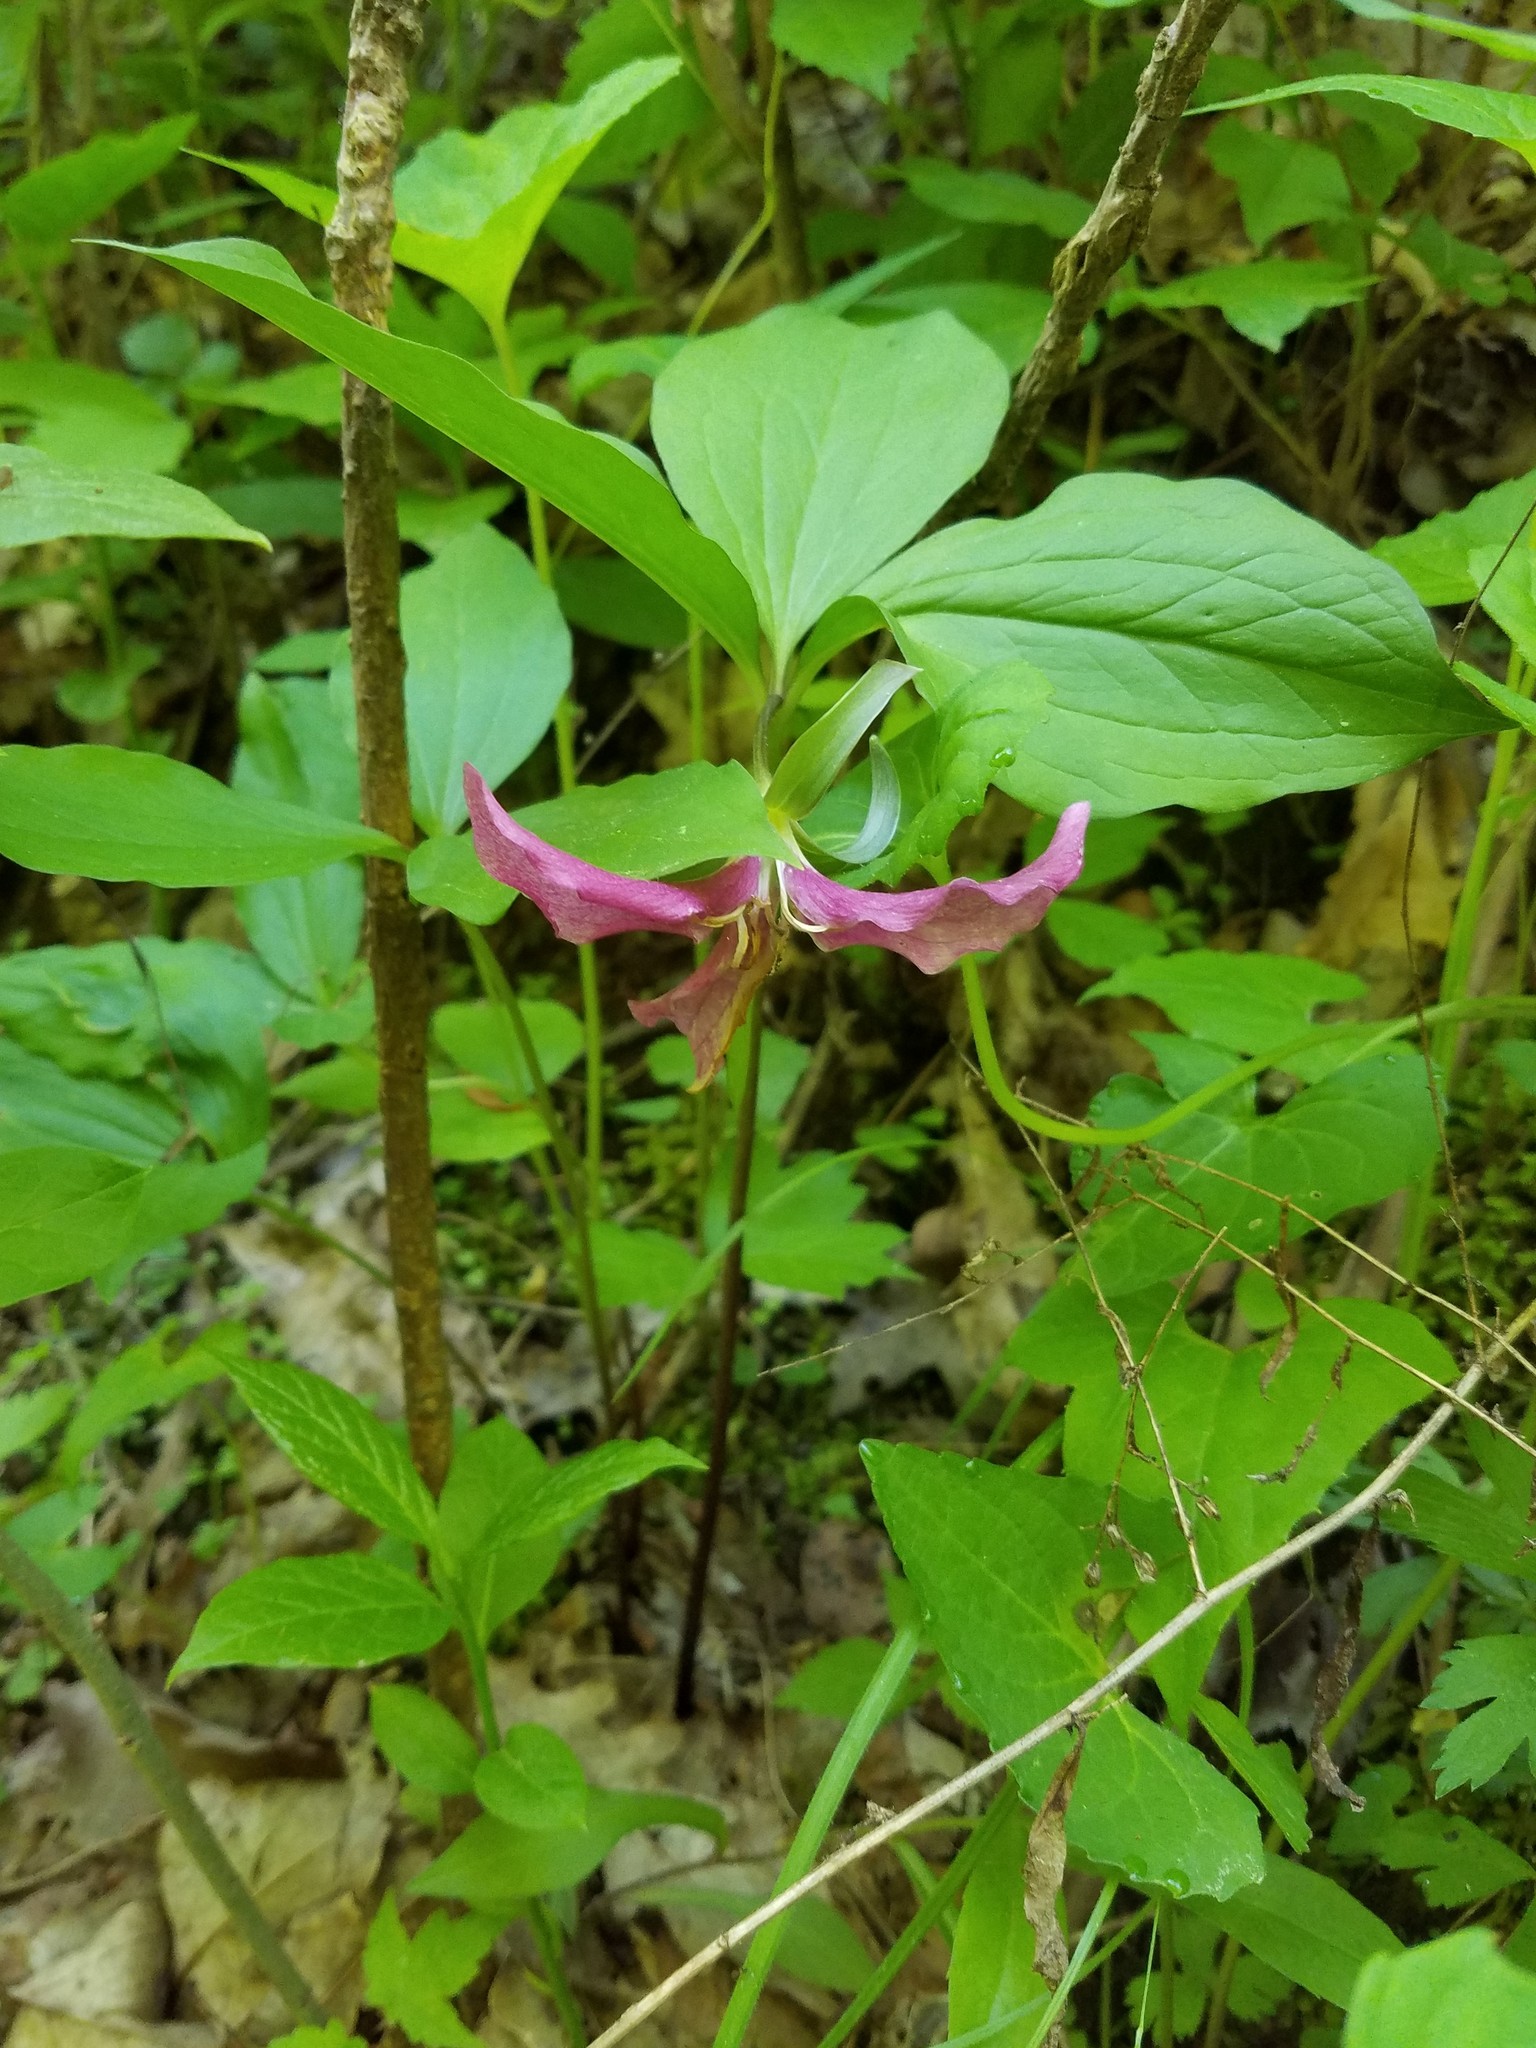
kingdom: Plantae
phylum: Tracheophyta
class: Liliopsida
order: Liliales
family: Melanthiaceae
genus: Trillium
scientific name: Trillium catesbaei
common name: Bashful trillium
